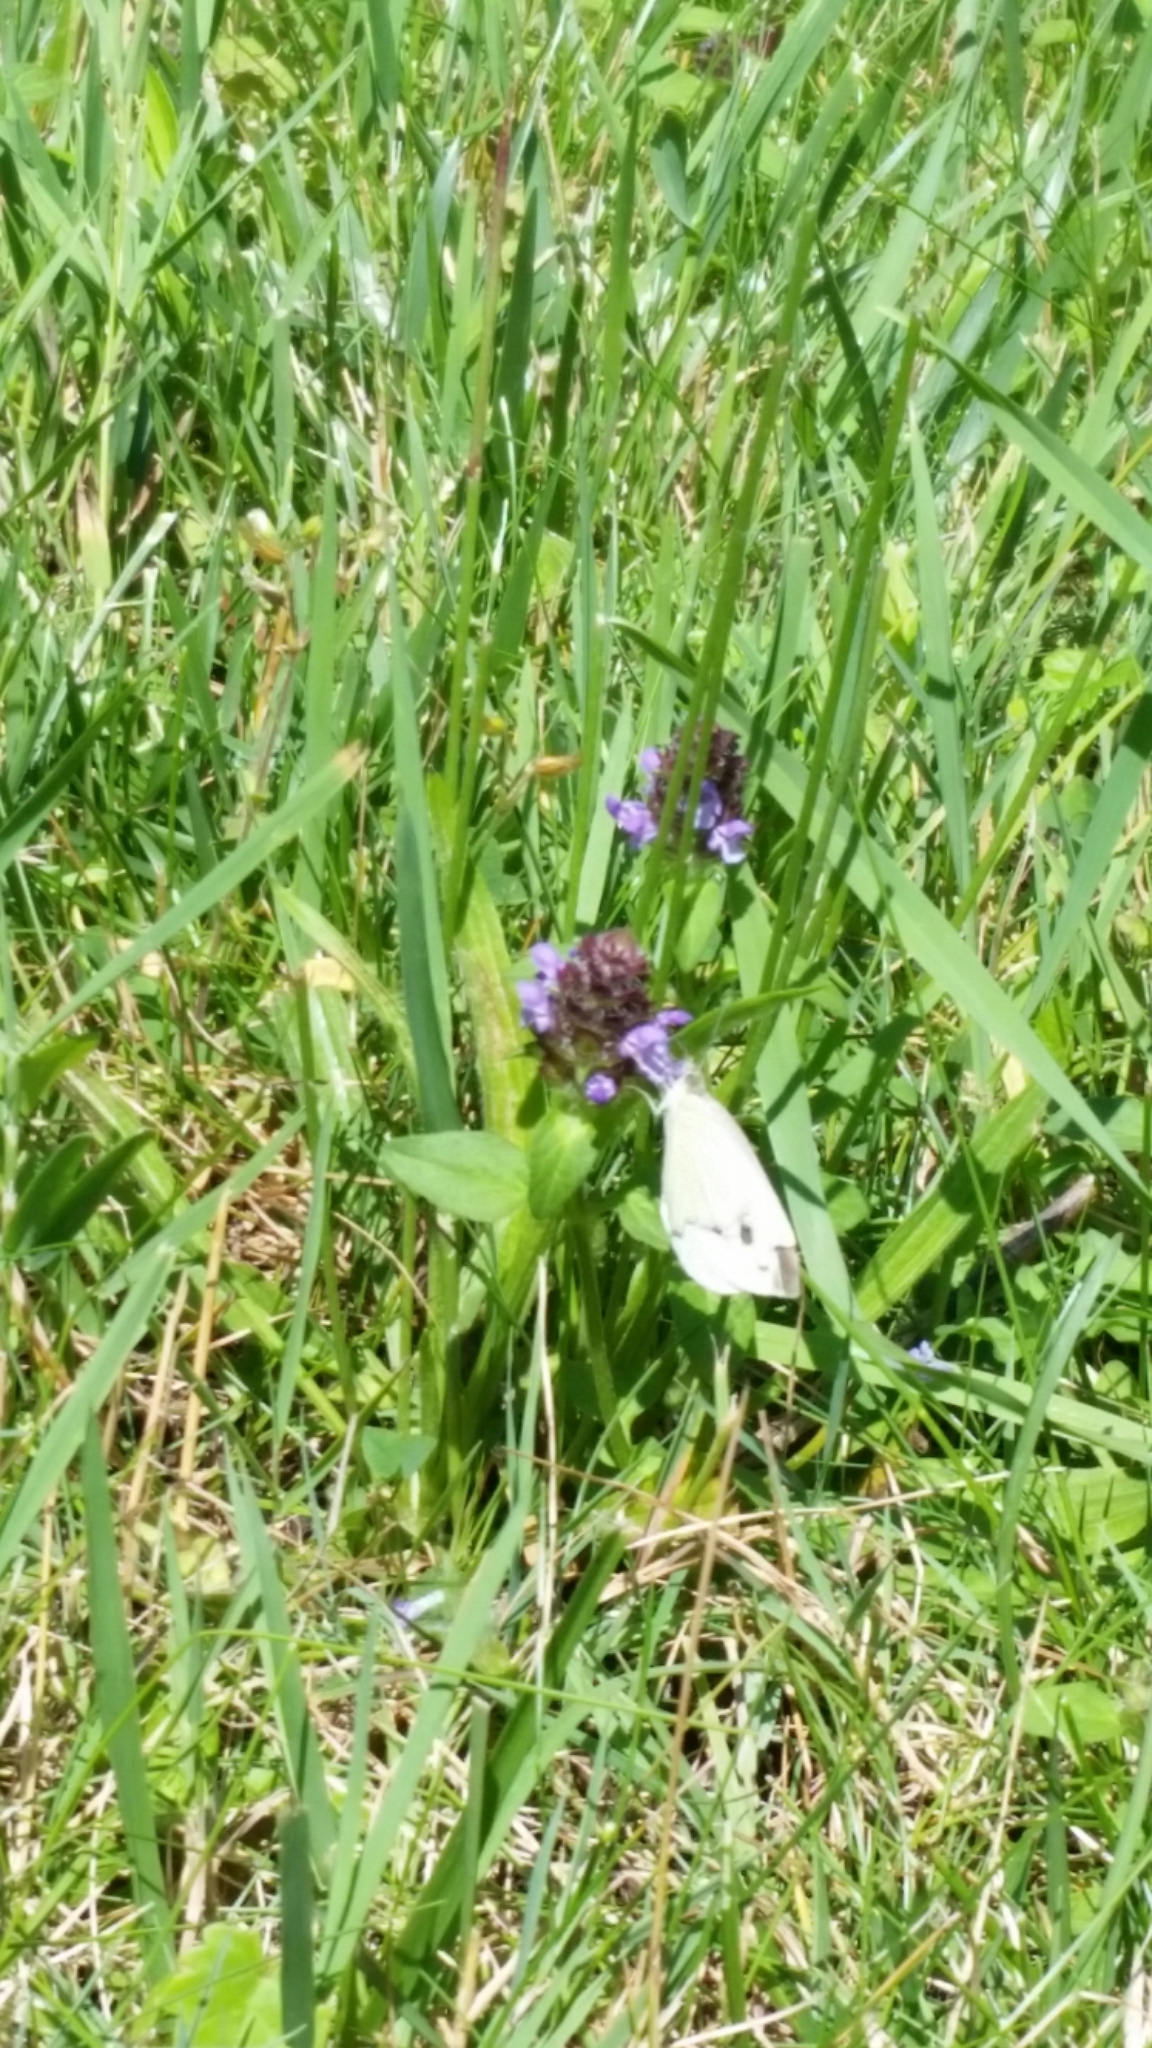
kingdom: Animalia
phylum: Arthropoda
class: Insecta
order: Lepidoptera
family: Pieridae
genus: Pieris
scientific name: Pieris rapae
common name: Small white
